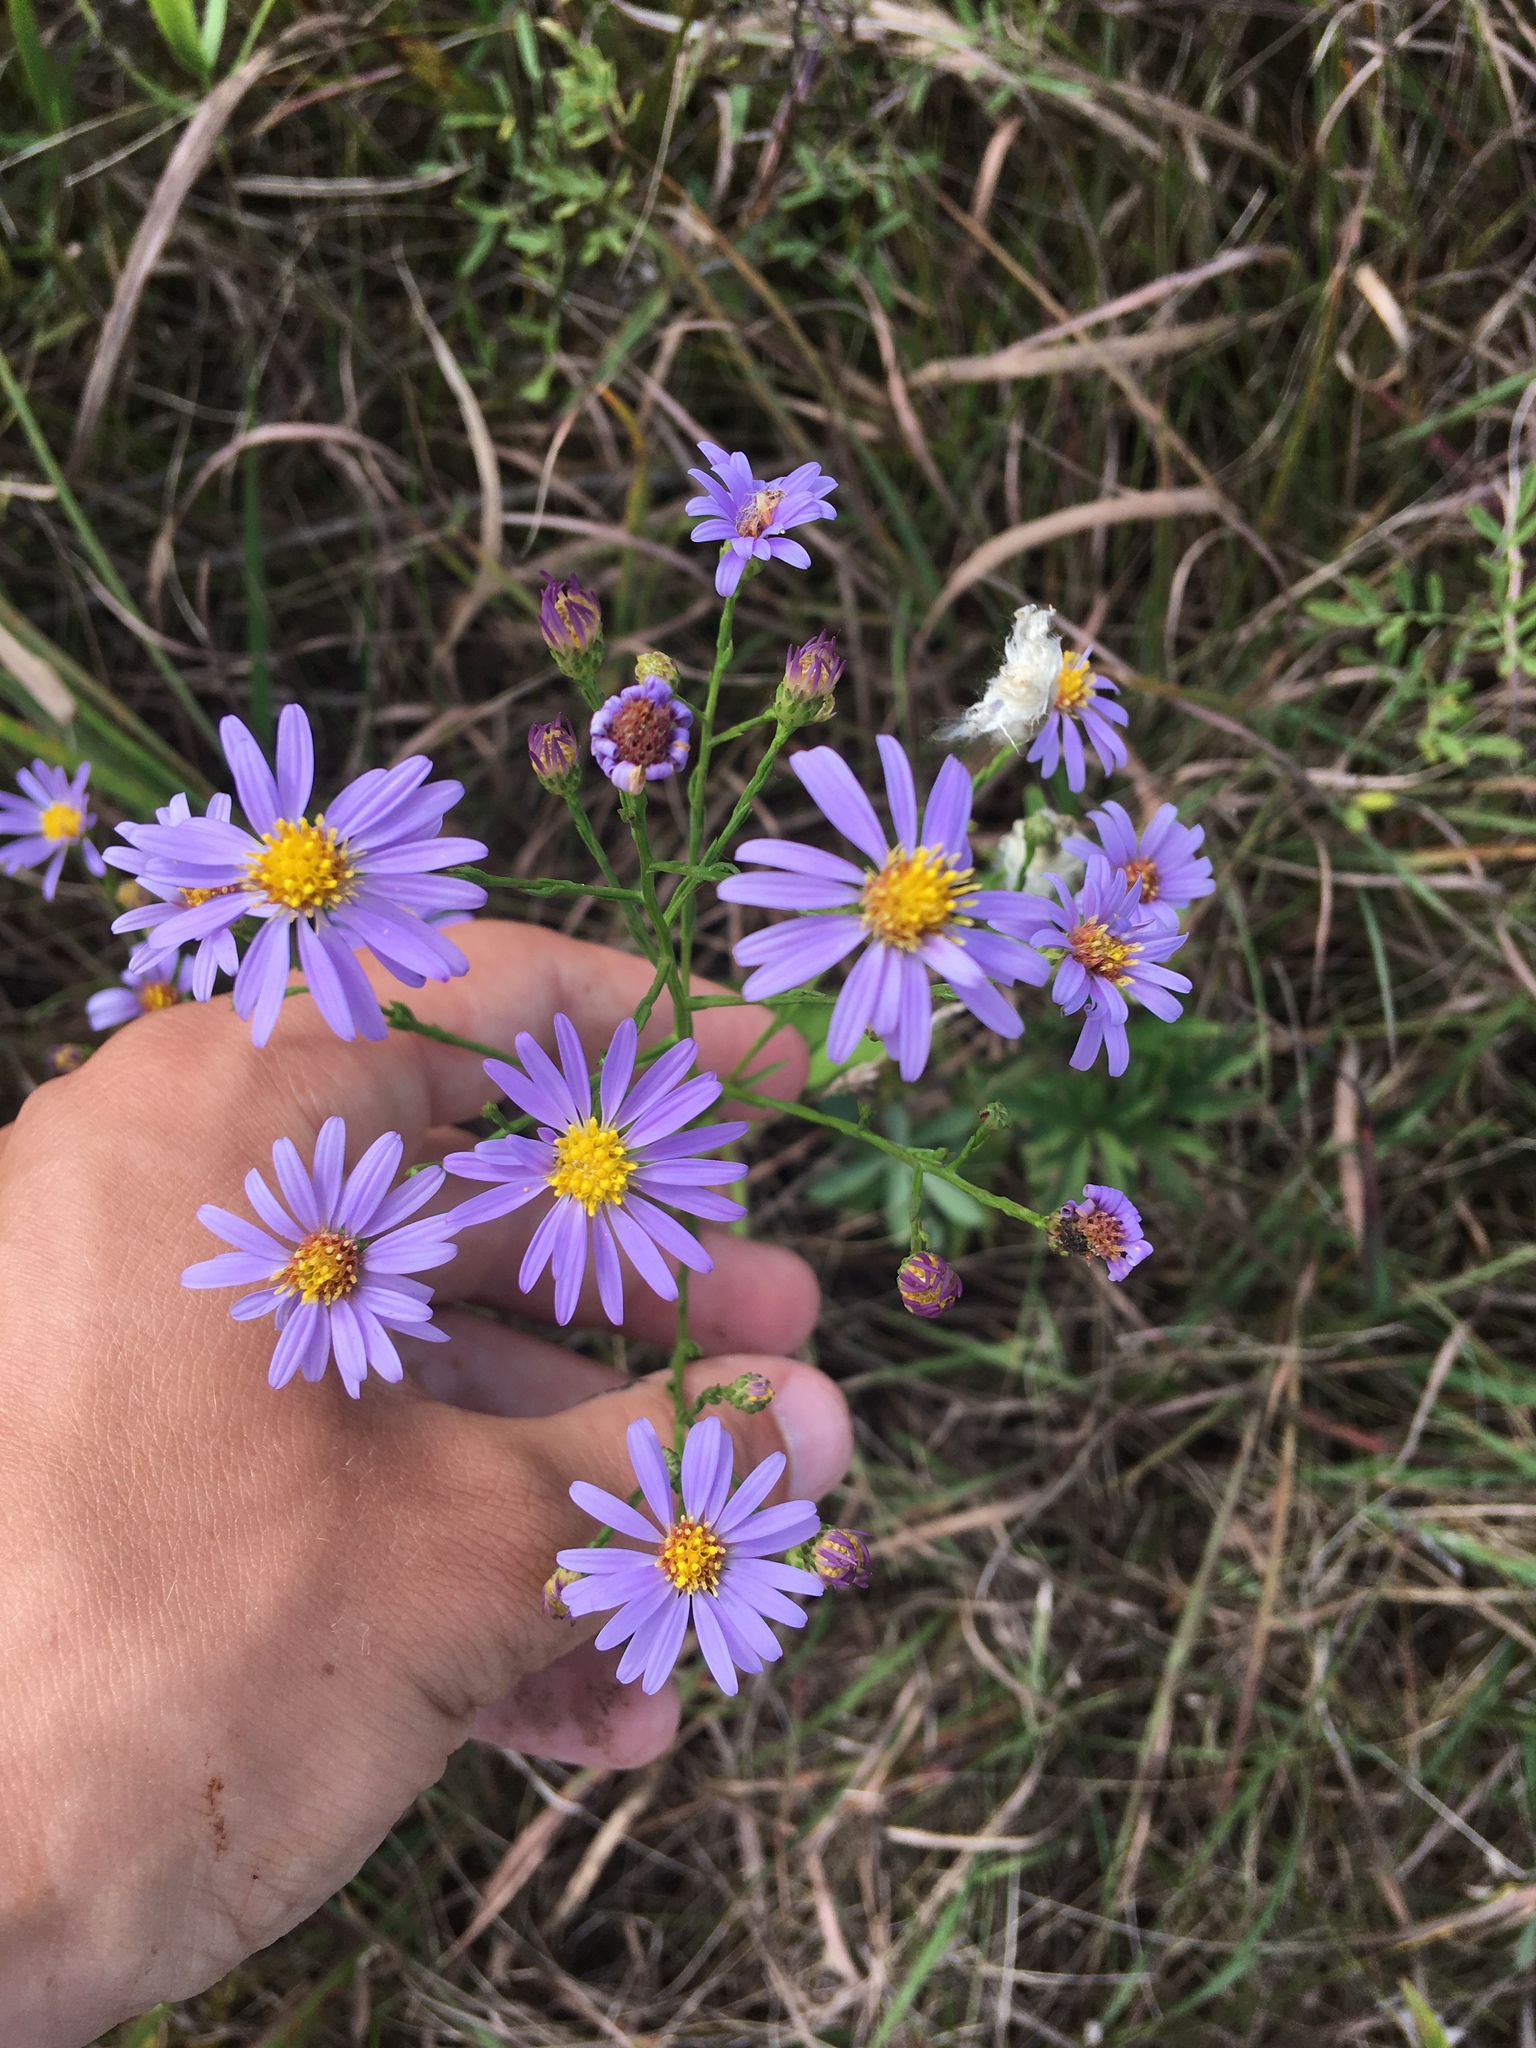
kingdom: Plantae
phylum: Tracheophyta
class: Magnoliopsida
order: Asterales
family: Asteraceae
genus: Symphyotrichum
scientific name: Symphyotrichum oolentangiense
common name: Azure aster
